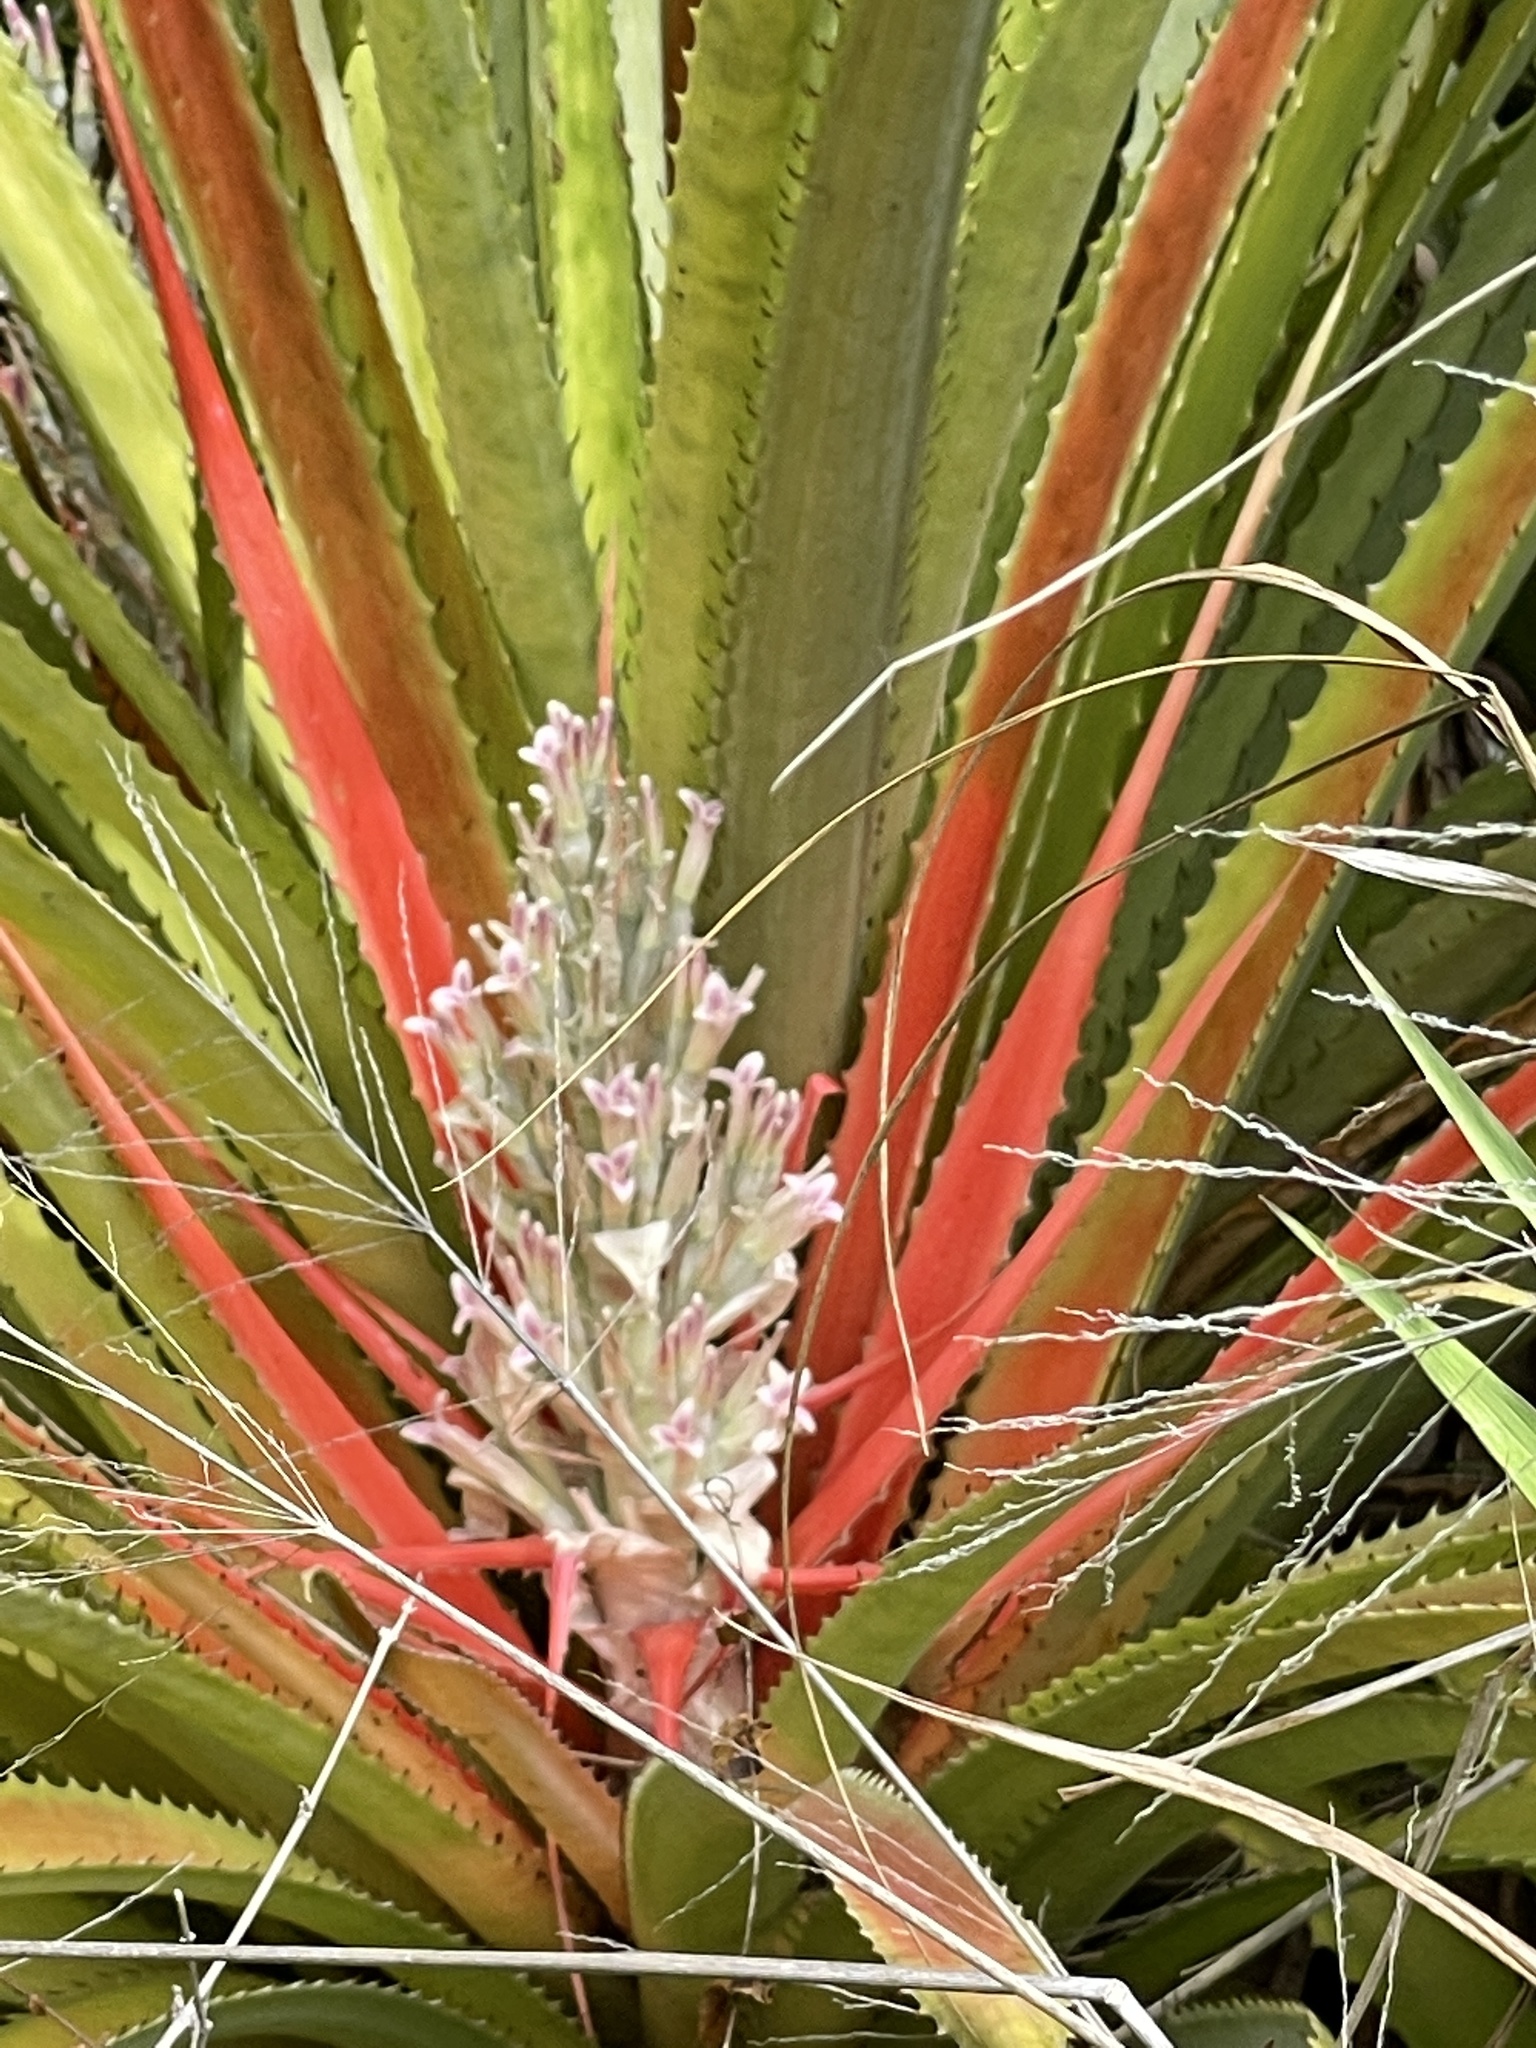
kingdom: Plantae
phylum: Tracheophyta
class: Liliopsida
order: Poales
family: Bromeliaceae
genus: Bromelia
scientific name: Bromelia pinguin
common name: Pinguin
